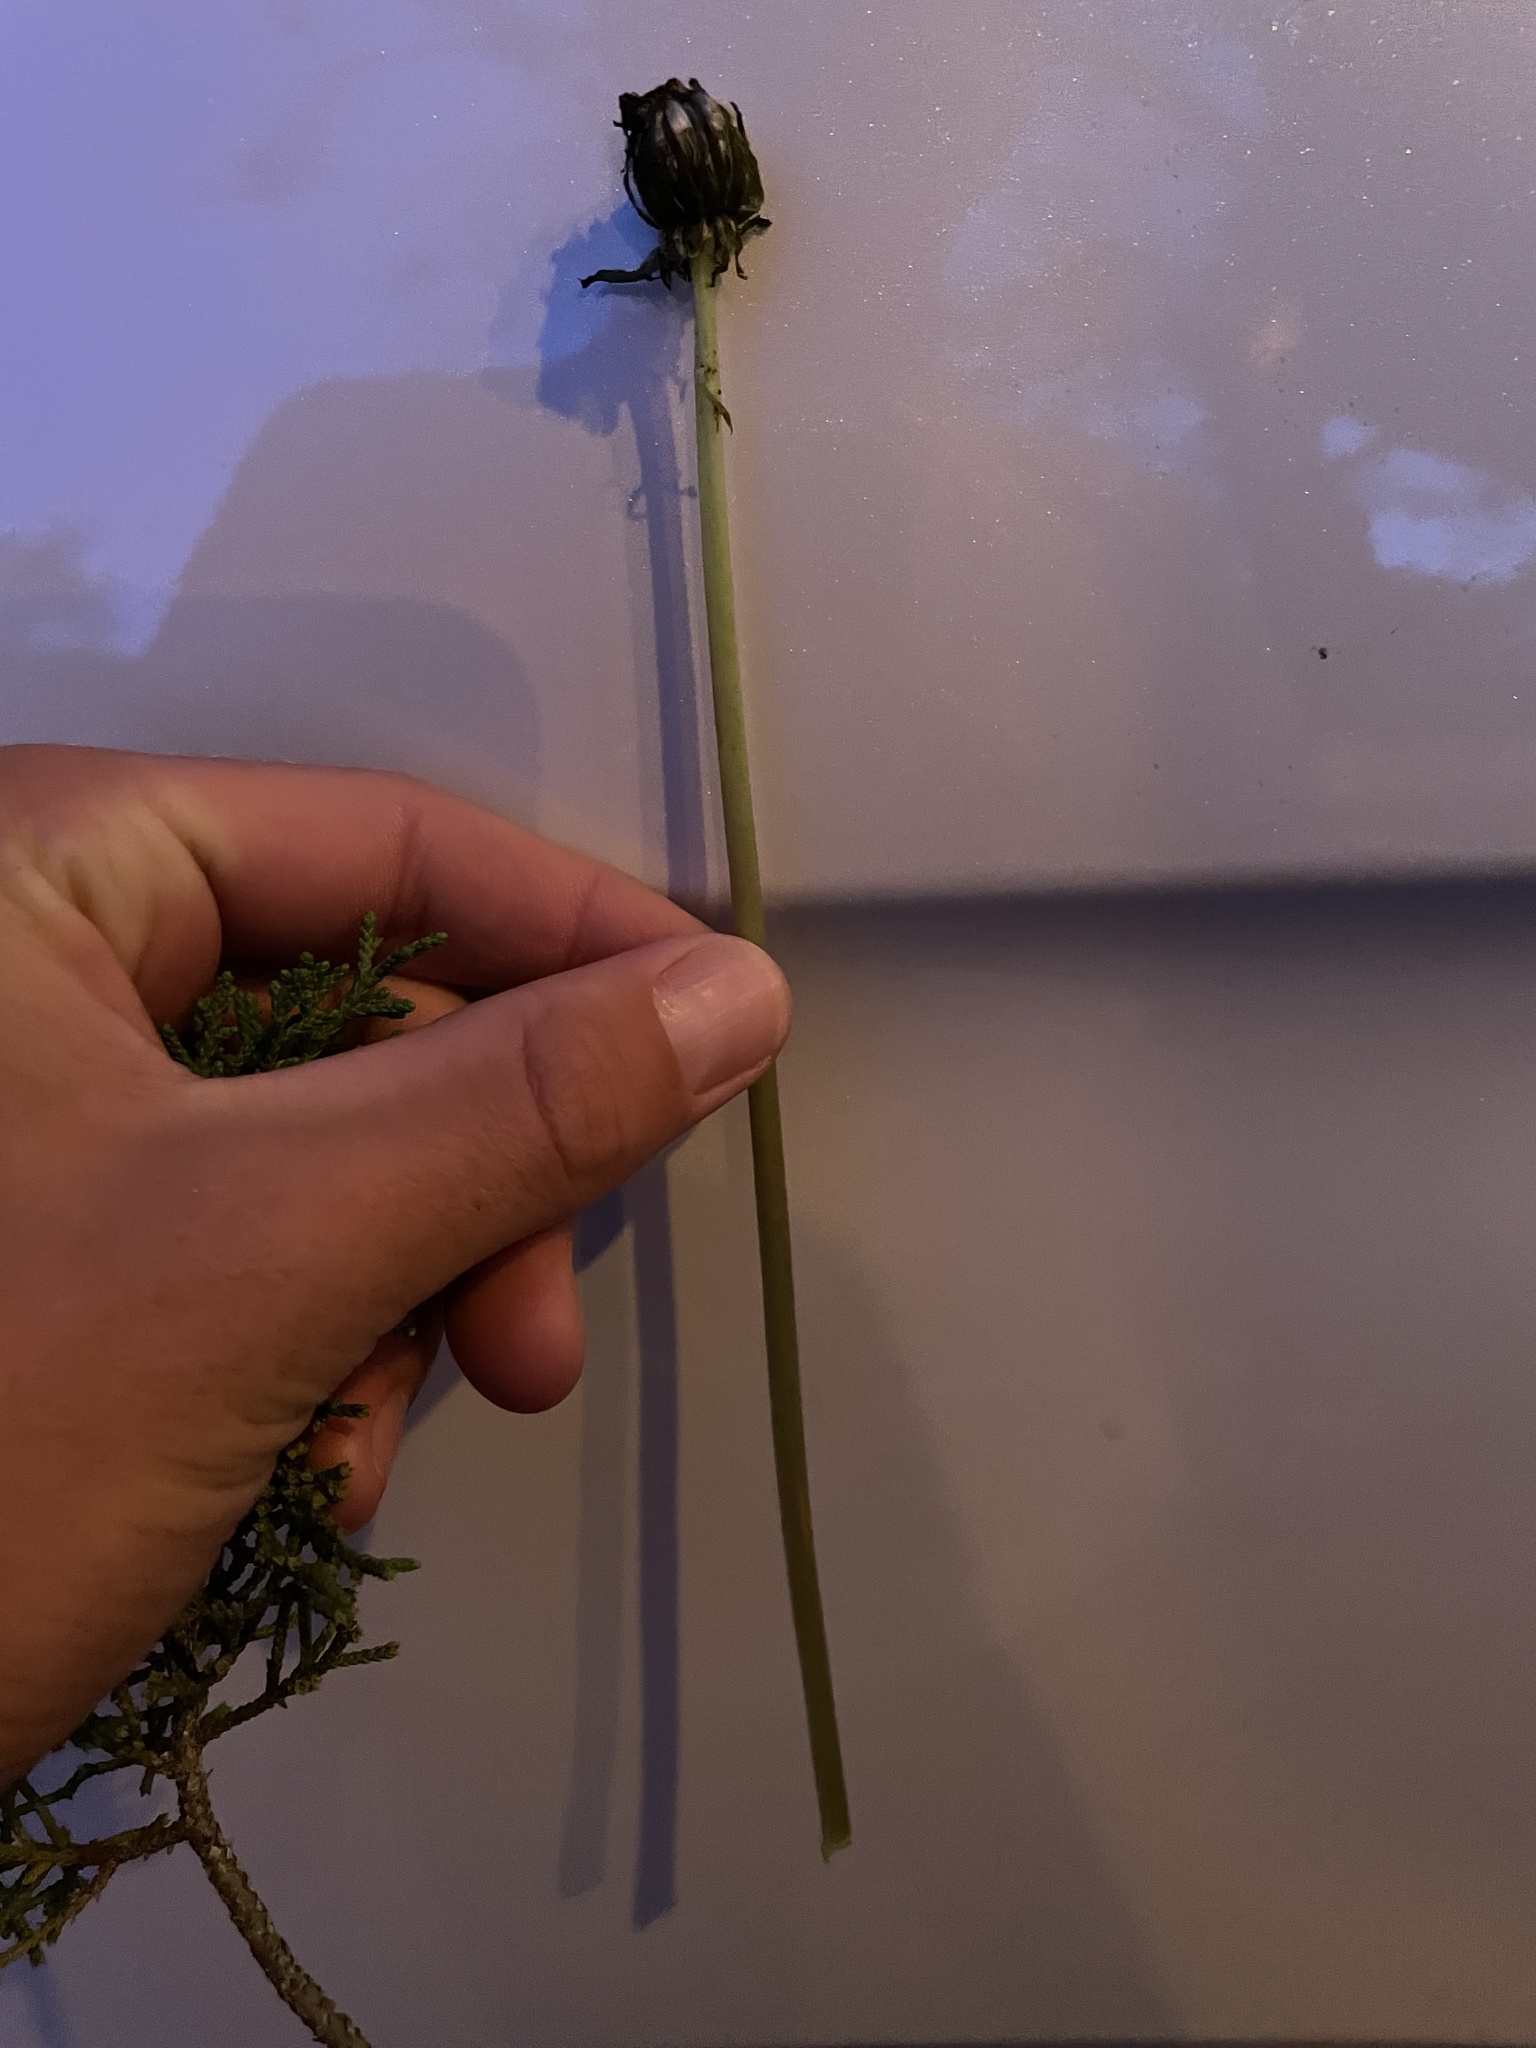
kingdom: Plantae
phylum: Tracheophyta
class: Magnoliopsida
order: Asterales
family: Asteraceae
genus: Taraxacum
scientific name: Taraxacum officinale
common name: Common dandelion
